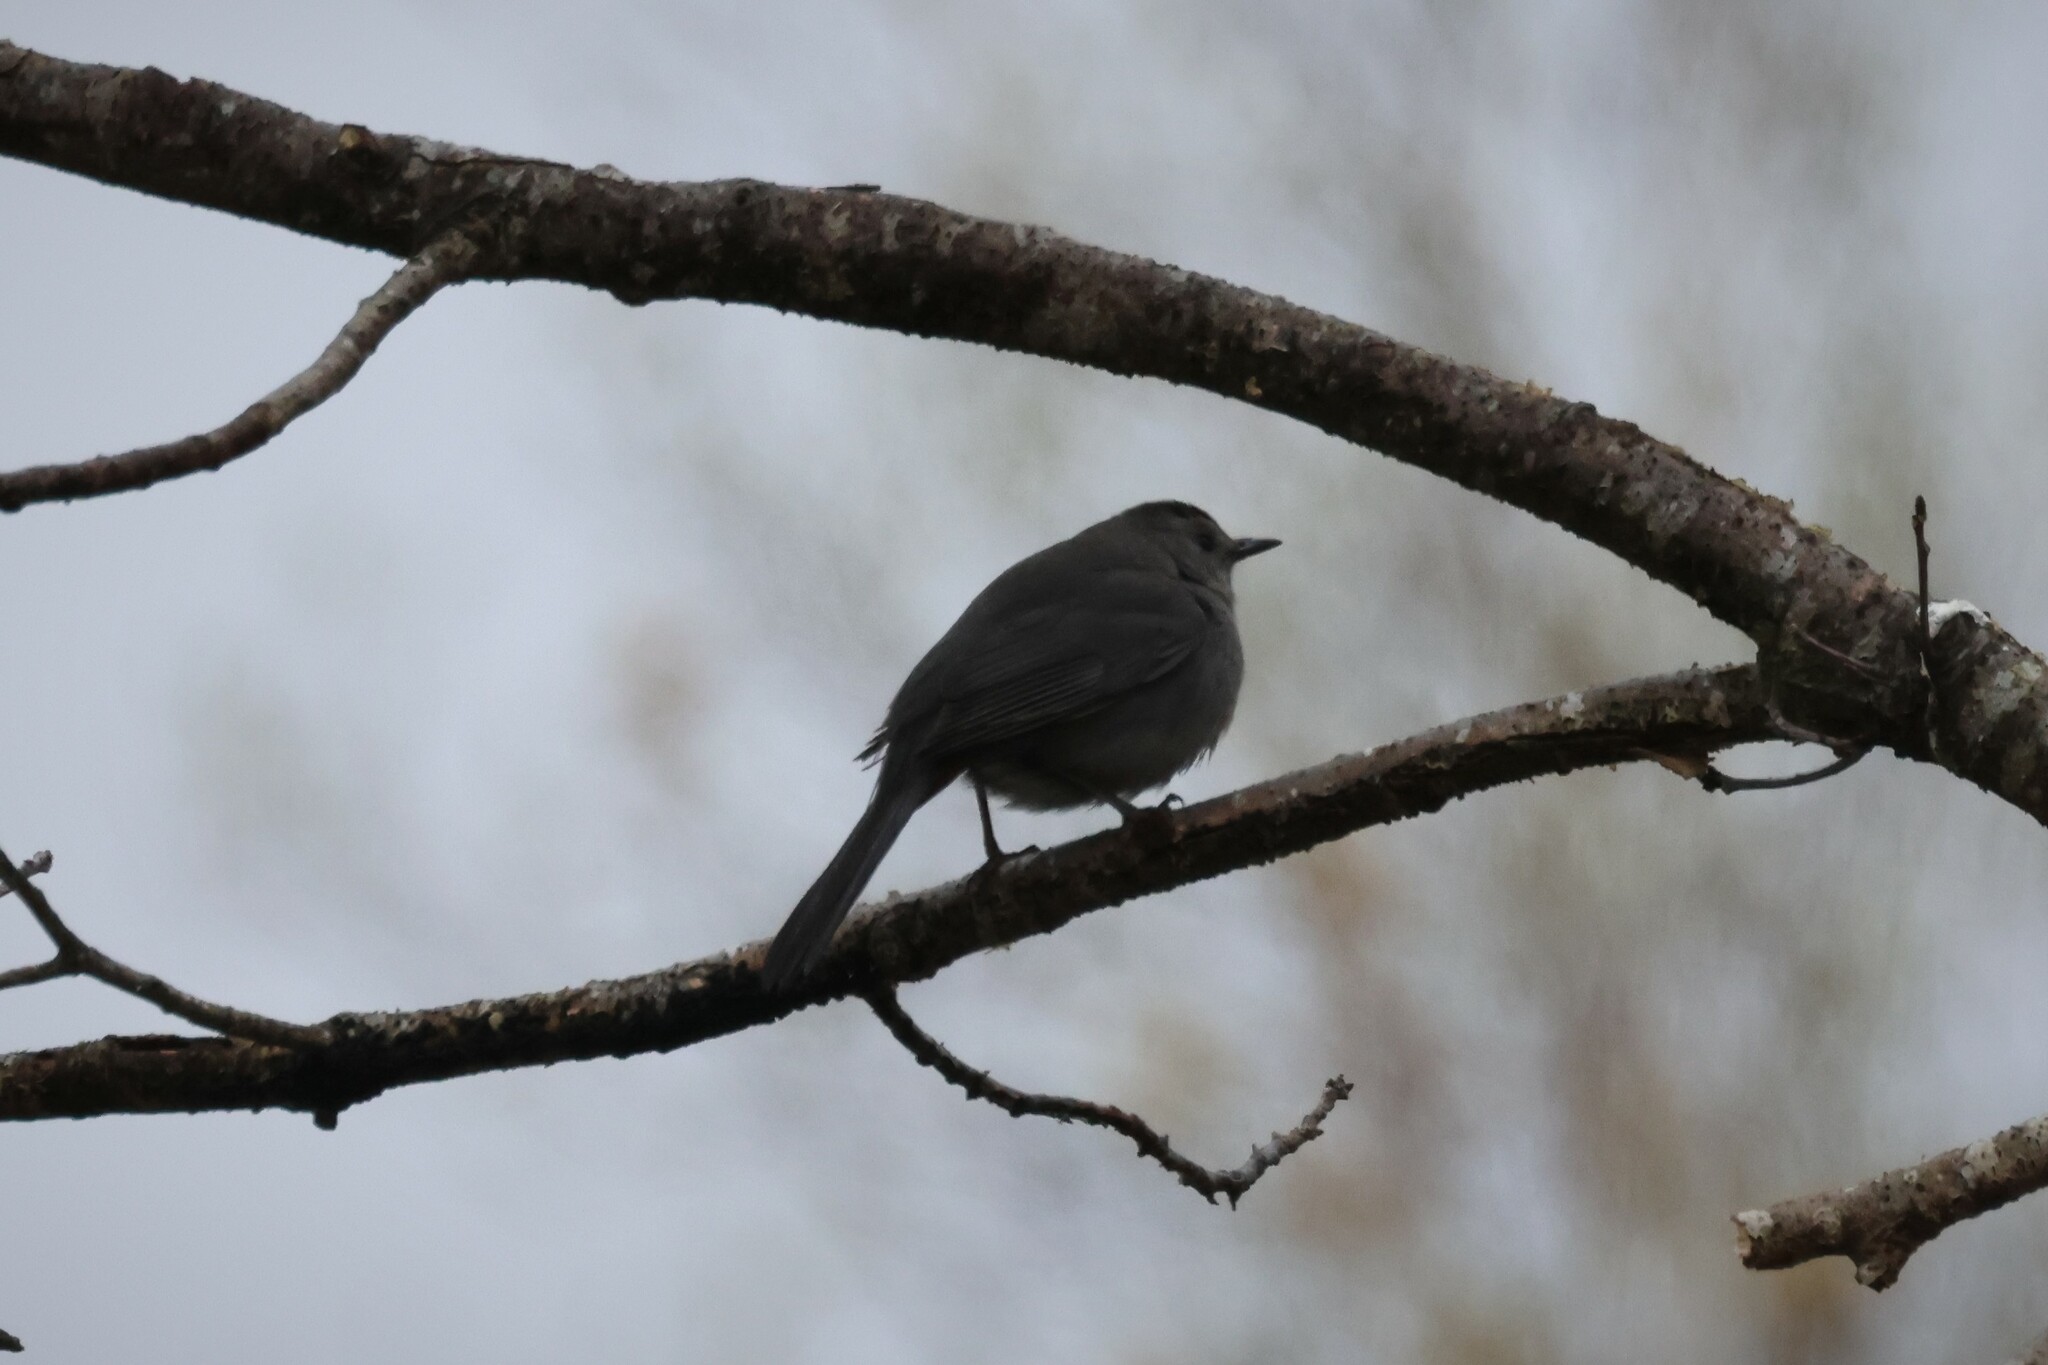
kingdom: Animalia
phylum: Chordata
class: Aves
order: Passeriformes
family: Mimidae
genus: Dumetella
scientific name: Dumetella carolinensis
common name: Gray catbird
